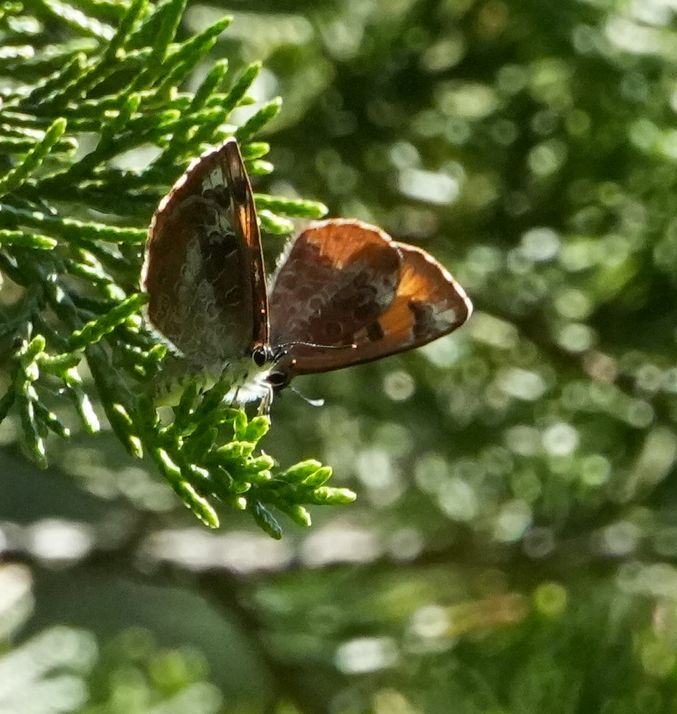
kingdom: Animalia
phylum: Arthropoda
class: Insecta
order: Lepidoptera
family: Lycaenidae
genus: Feniseca
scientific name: Feniseca tarquinius
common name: Harvester
